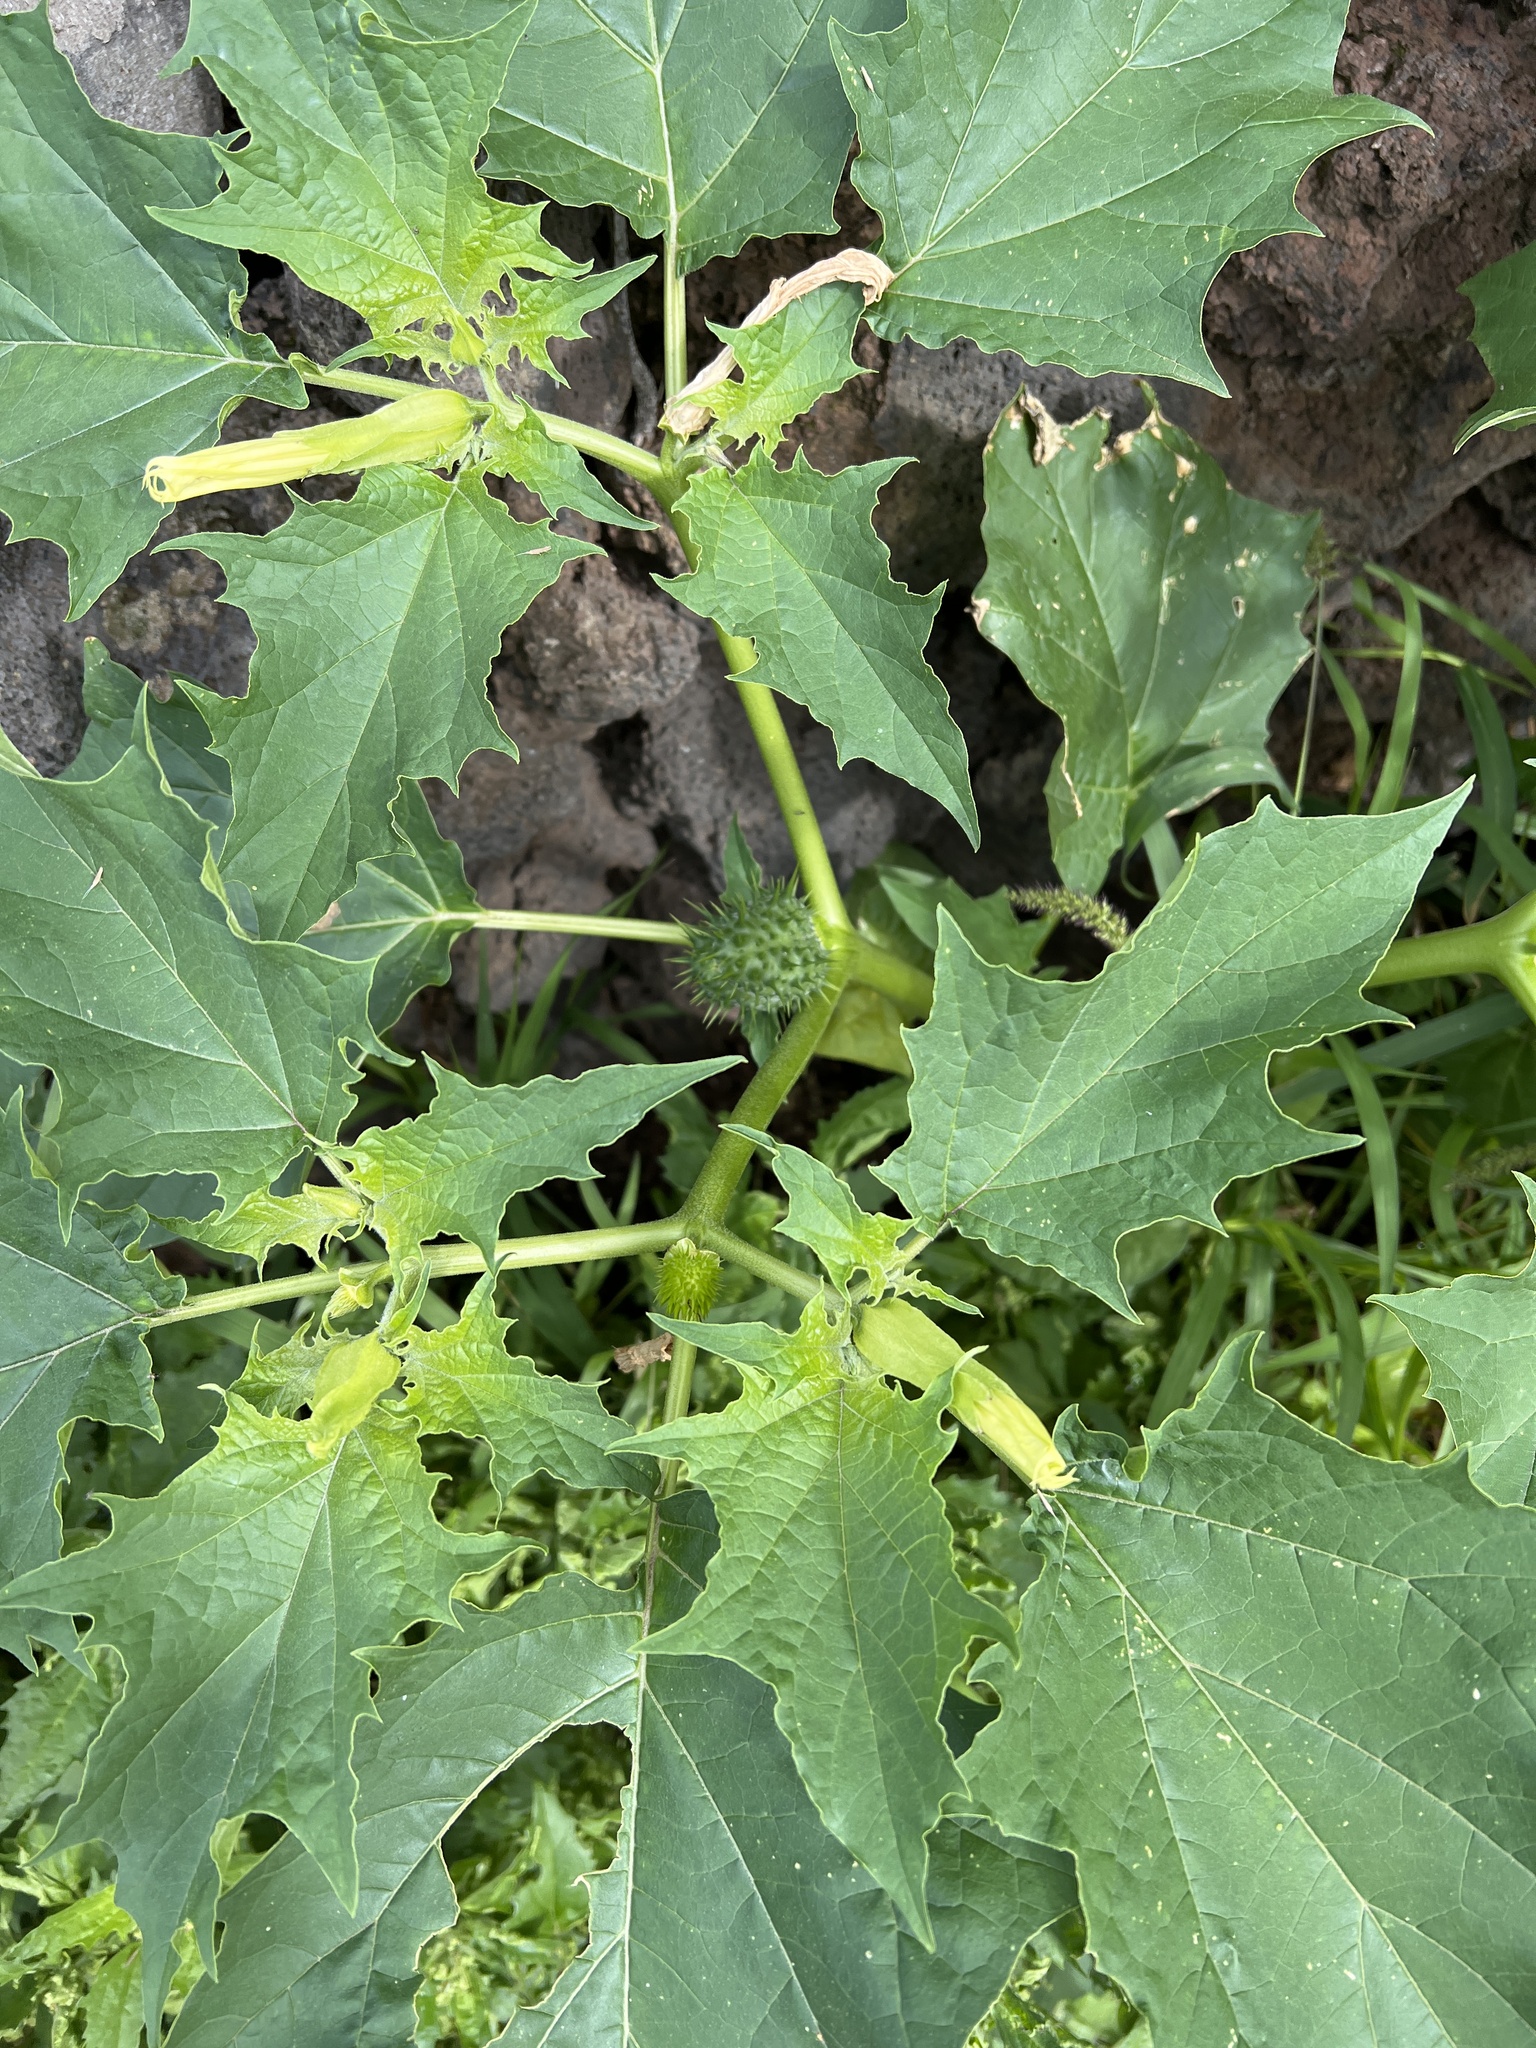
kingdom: Plantae
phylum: Tracheophyta
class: Magnoliopsida
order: Solanales
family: Solanaceae
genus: Datura
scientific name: Datura stramonium
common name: Thorn-apple
